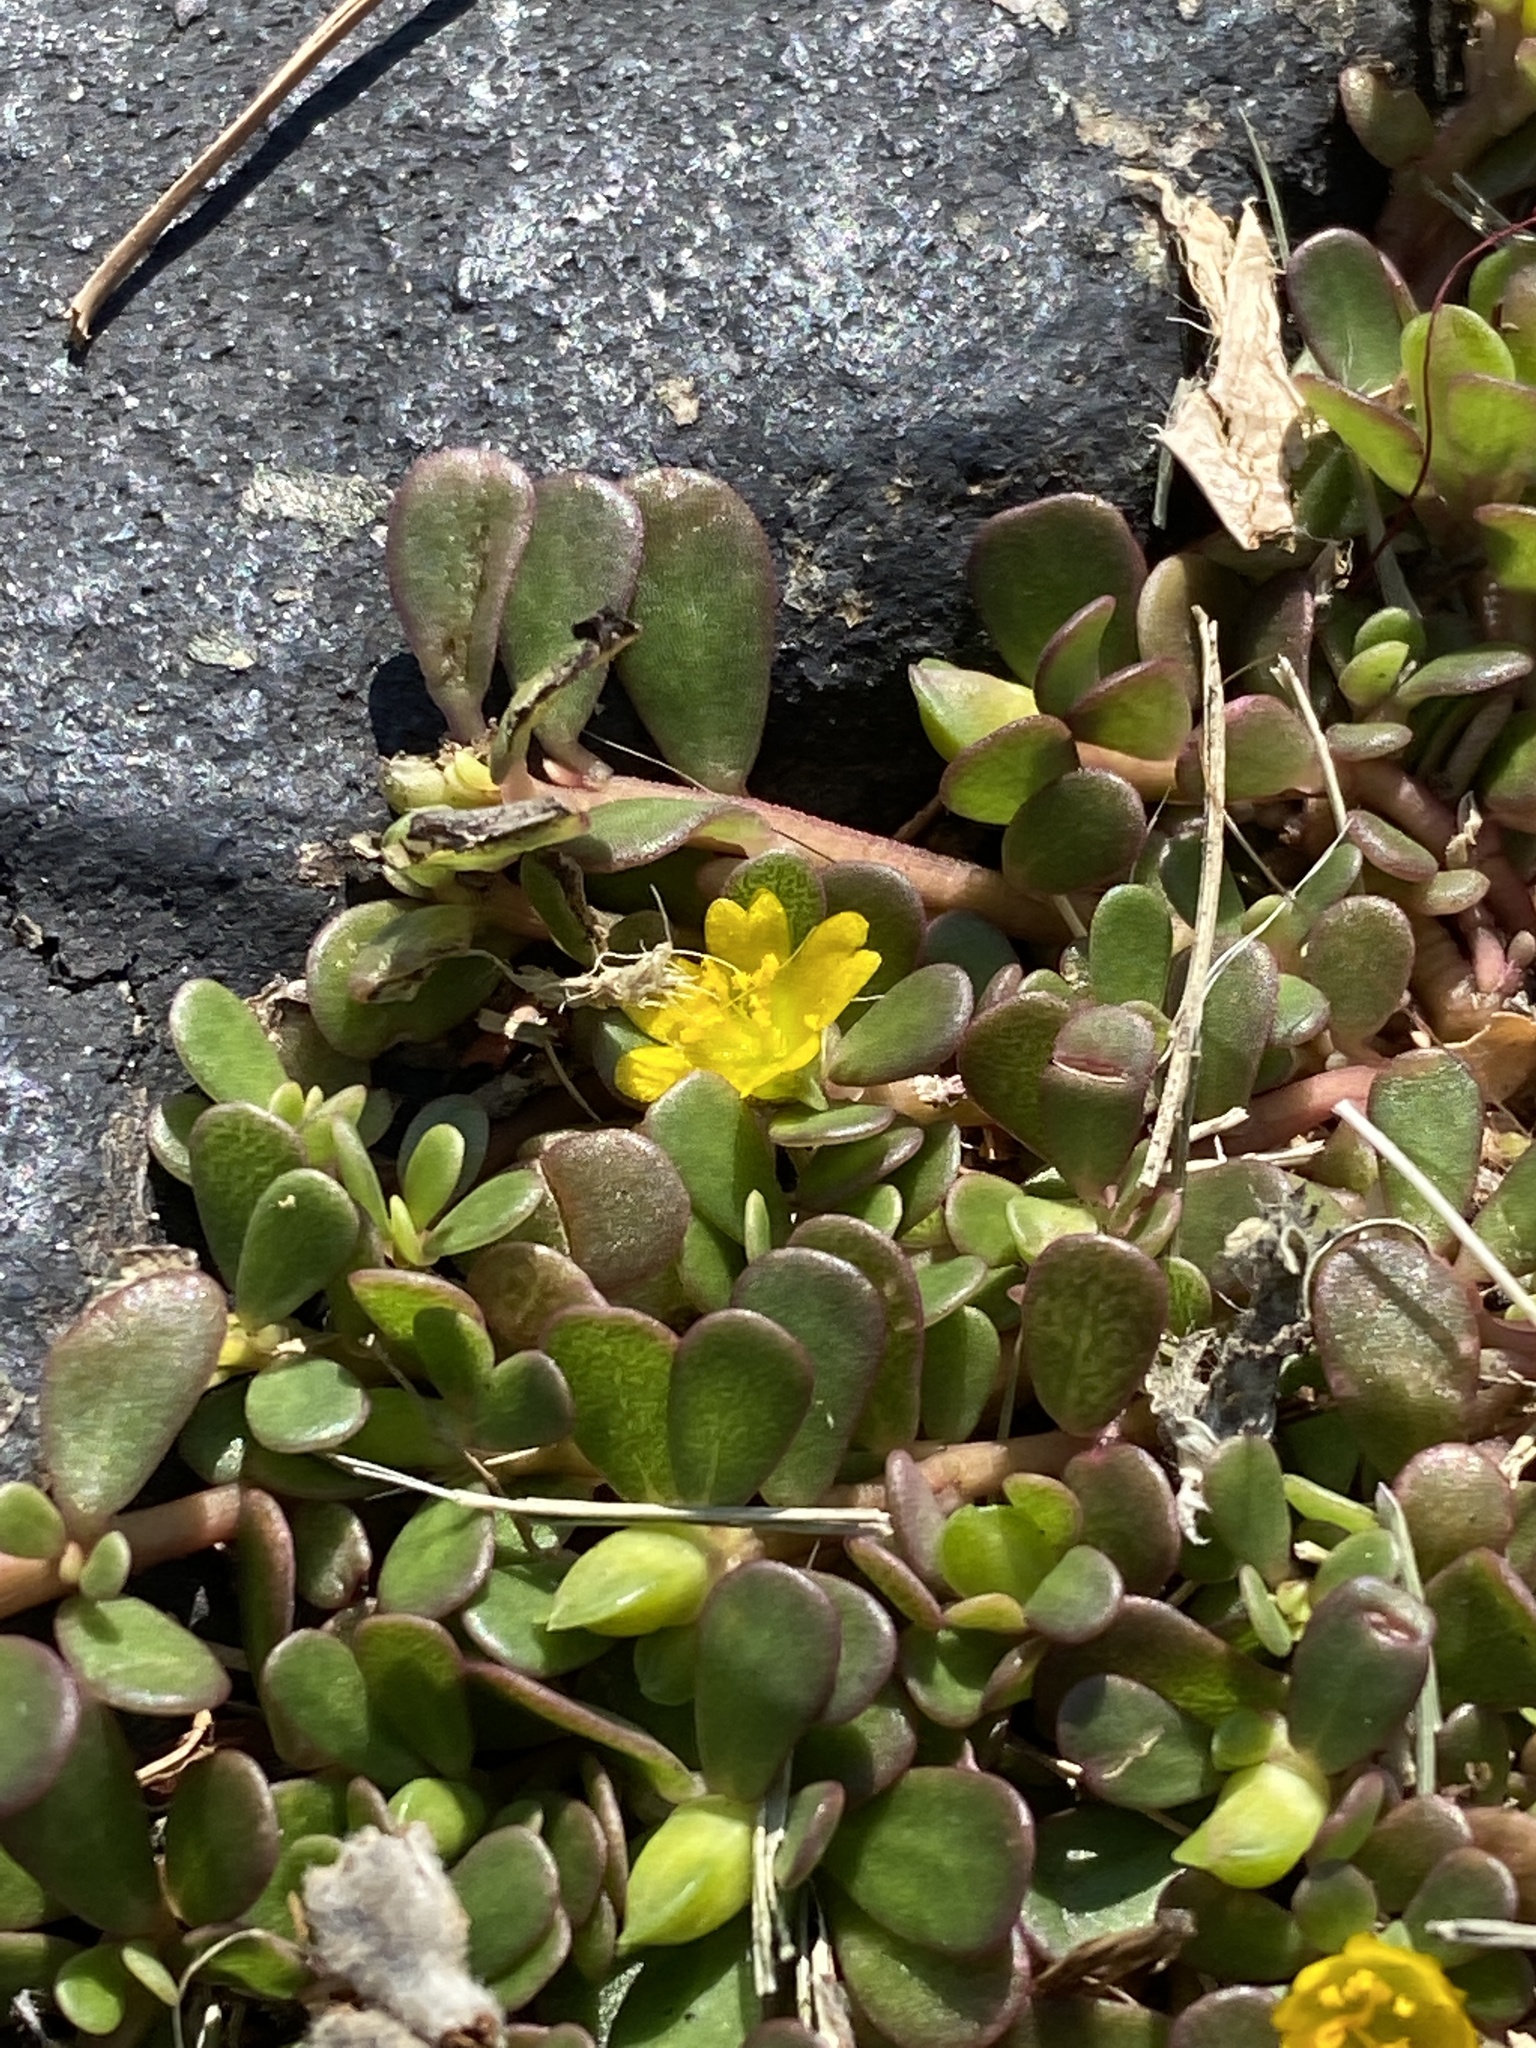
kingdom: Plantae
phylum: Tracheophyta
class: Magnoliopsida
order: Caryophyllales
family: Portulacaceae
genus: Portulaca
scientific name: Portulaca oleracea
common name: Common purslane
